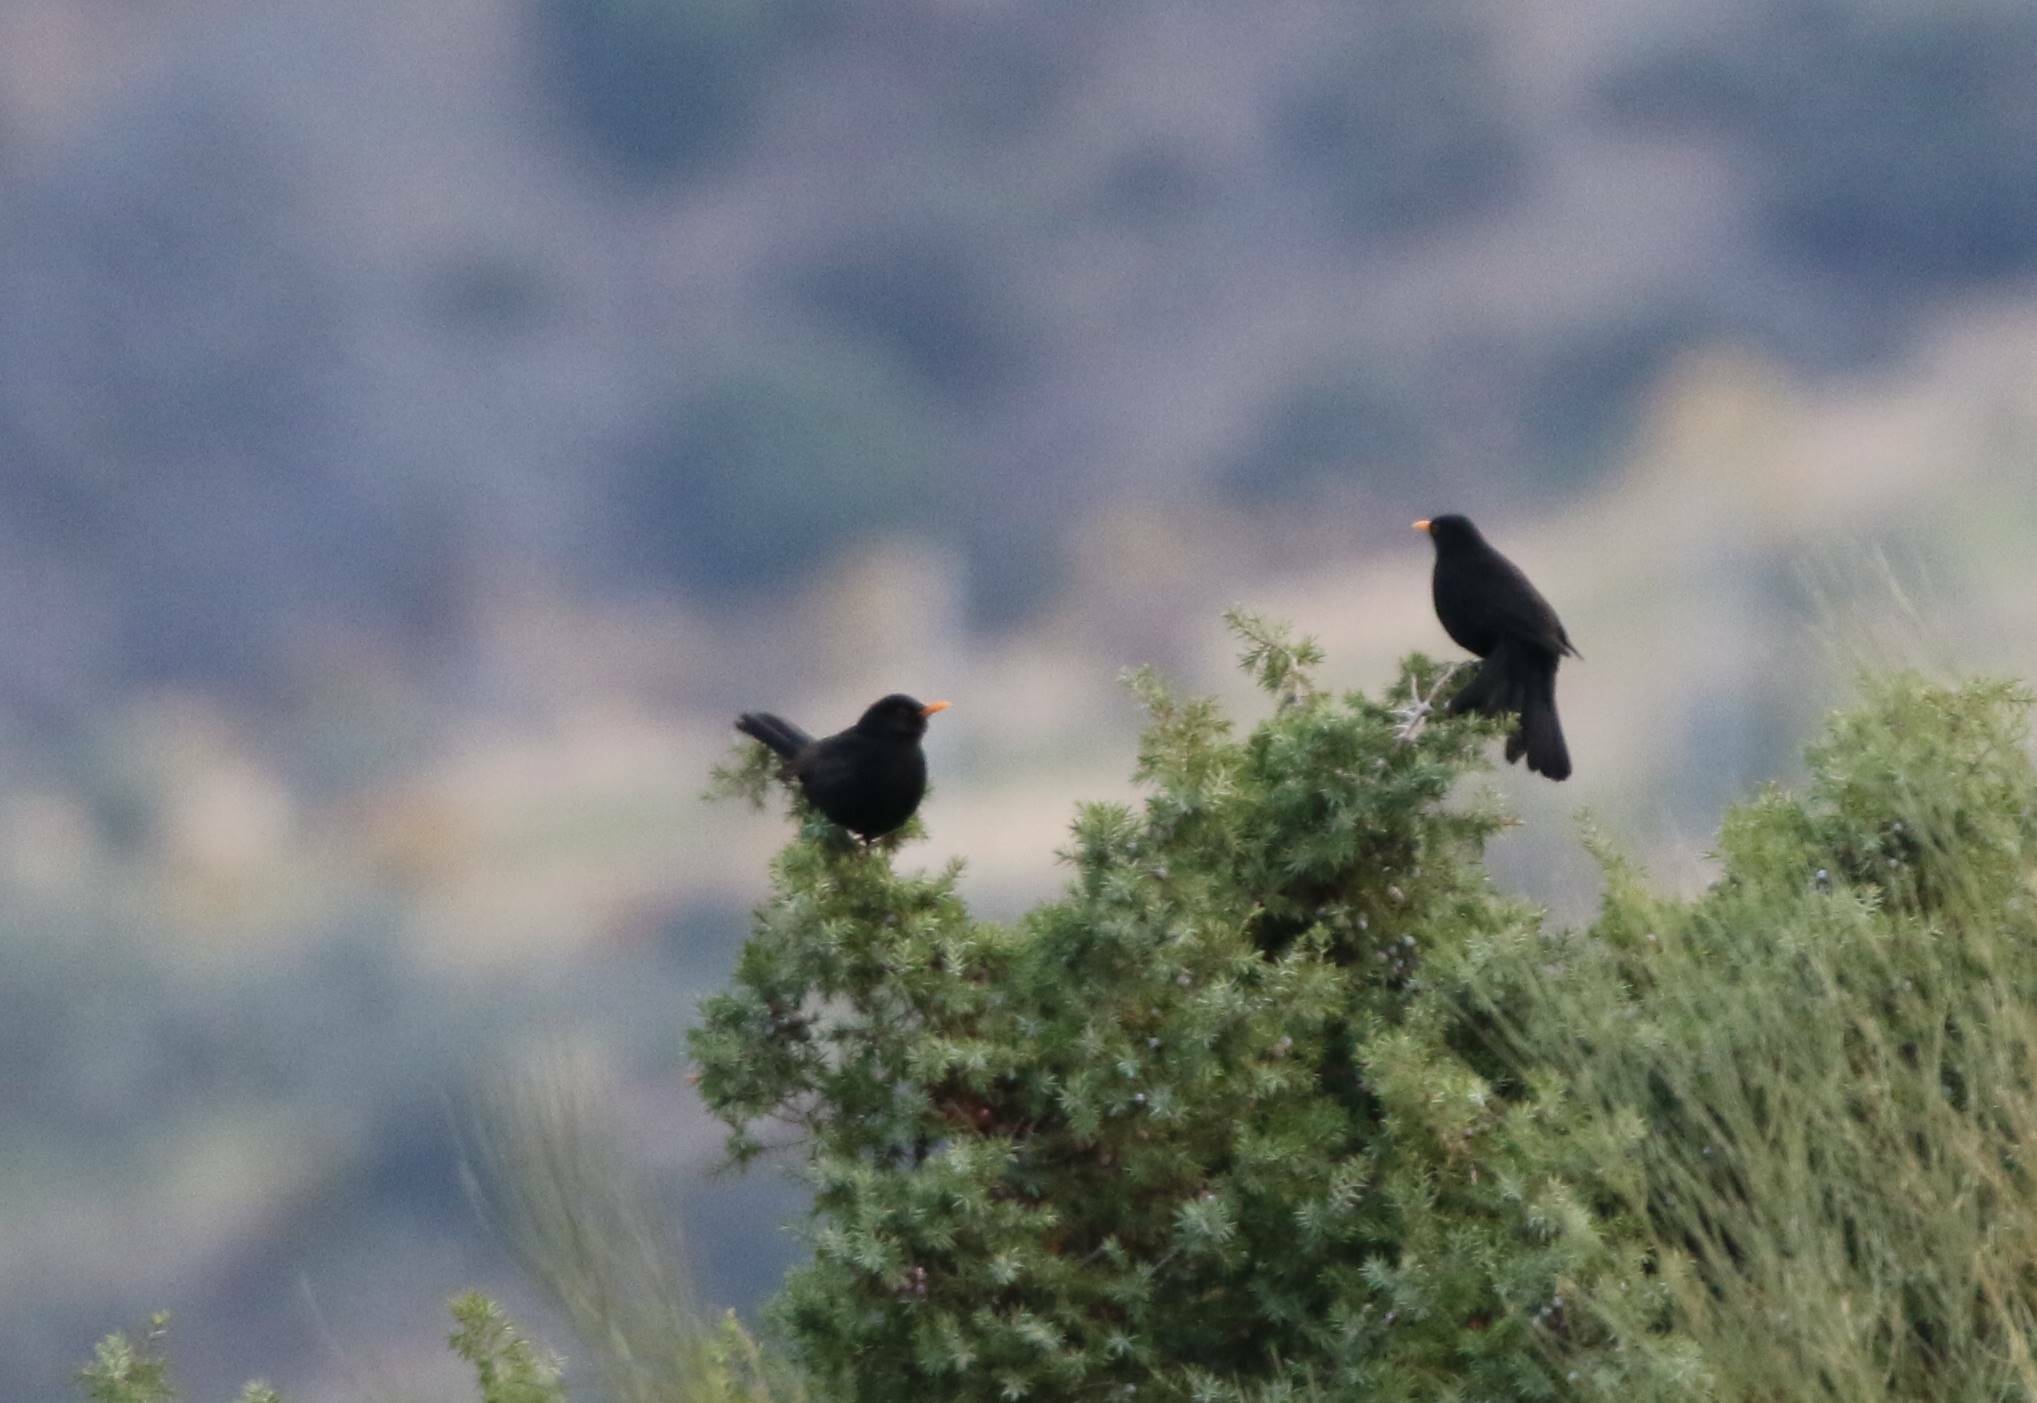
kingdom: Animalia
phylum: Chordata
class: Aves
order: Passeriformes
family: Turdidae
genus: Turdus
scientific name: Turdus merula
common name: Common blackbird
